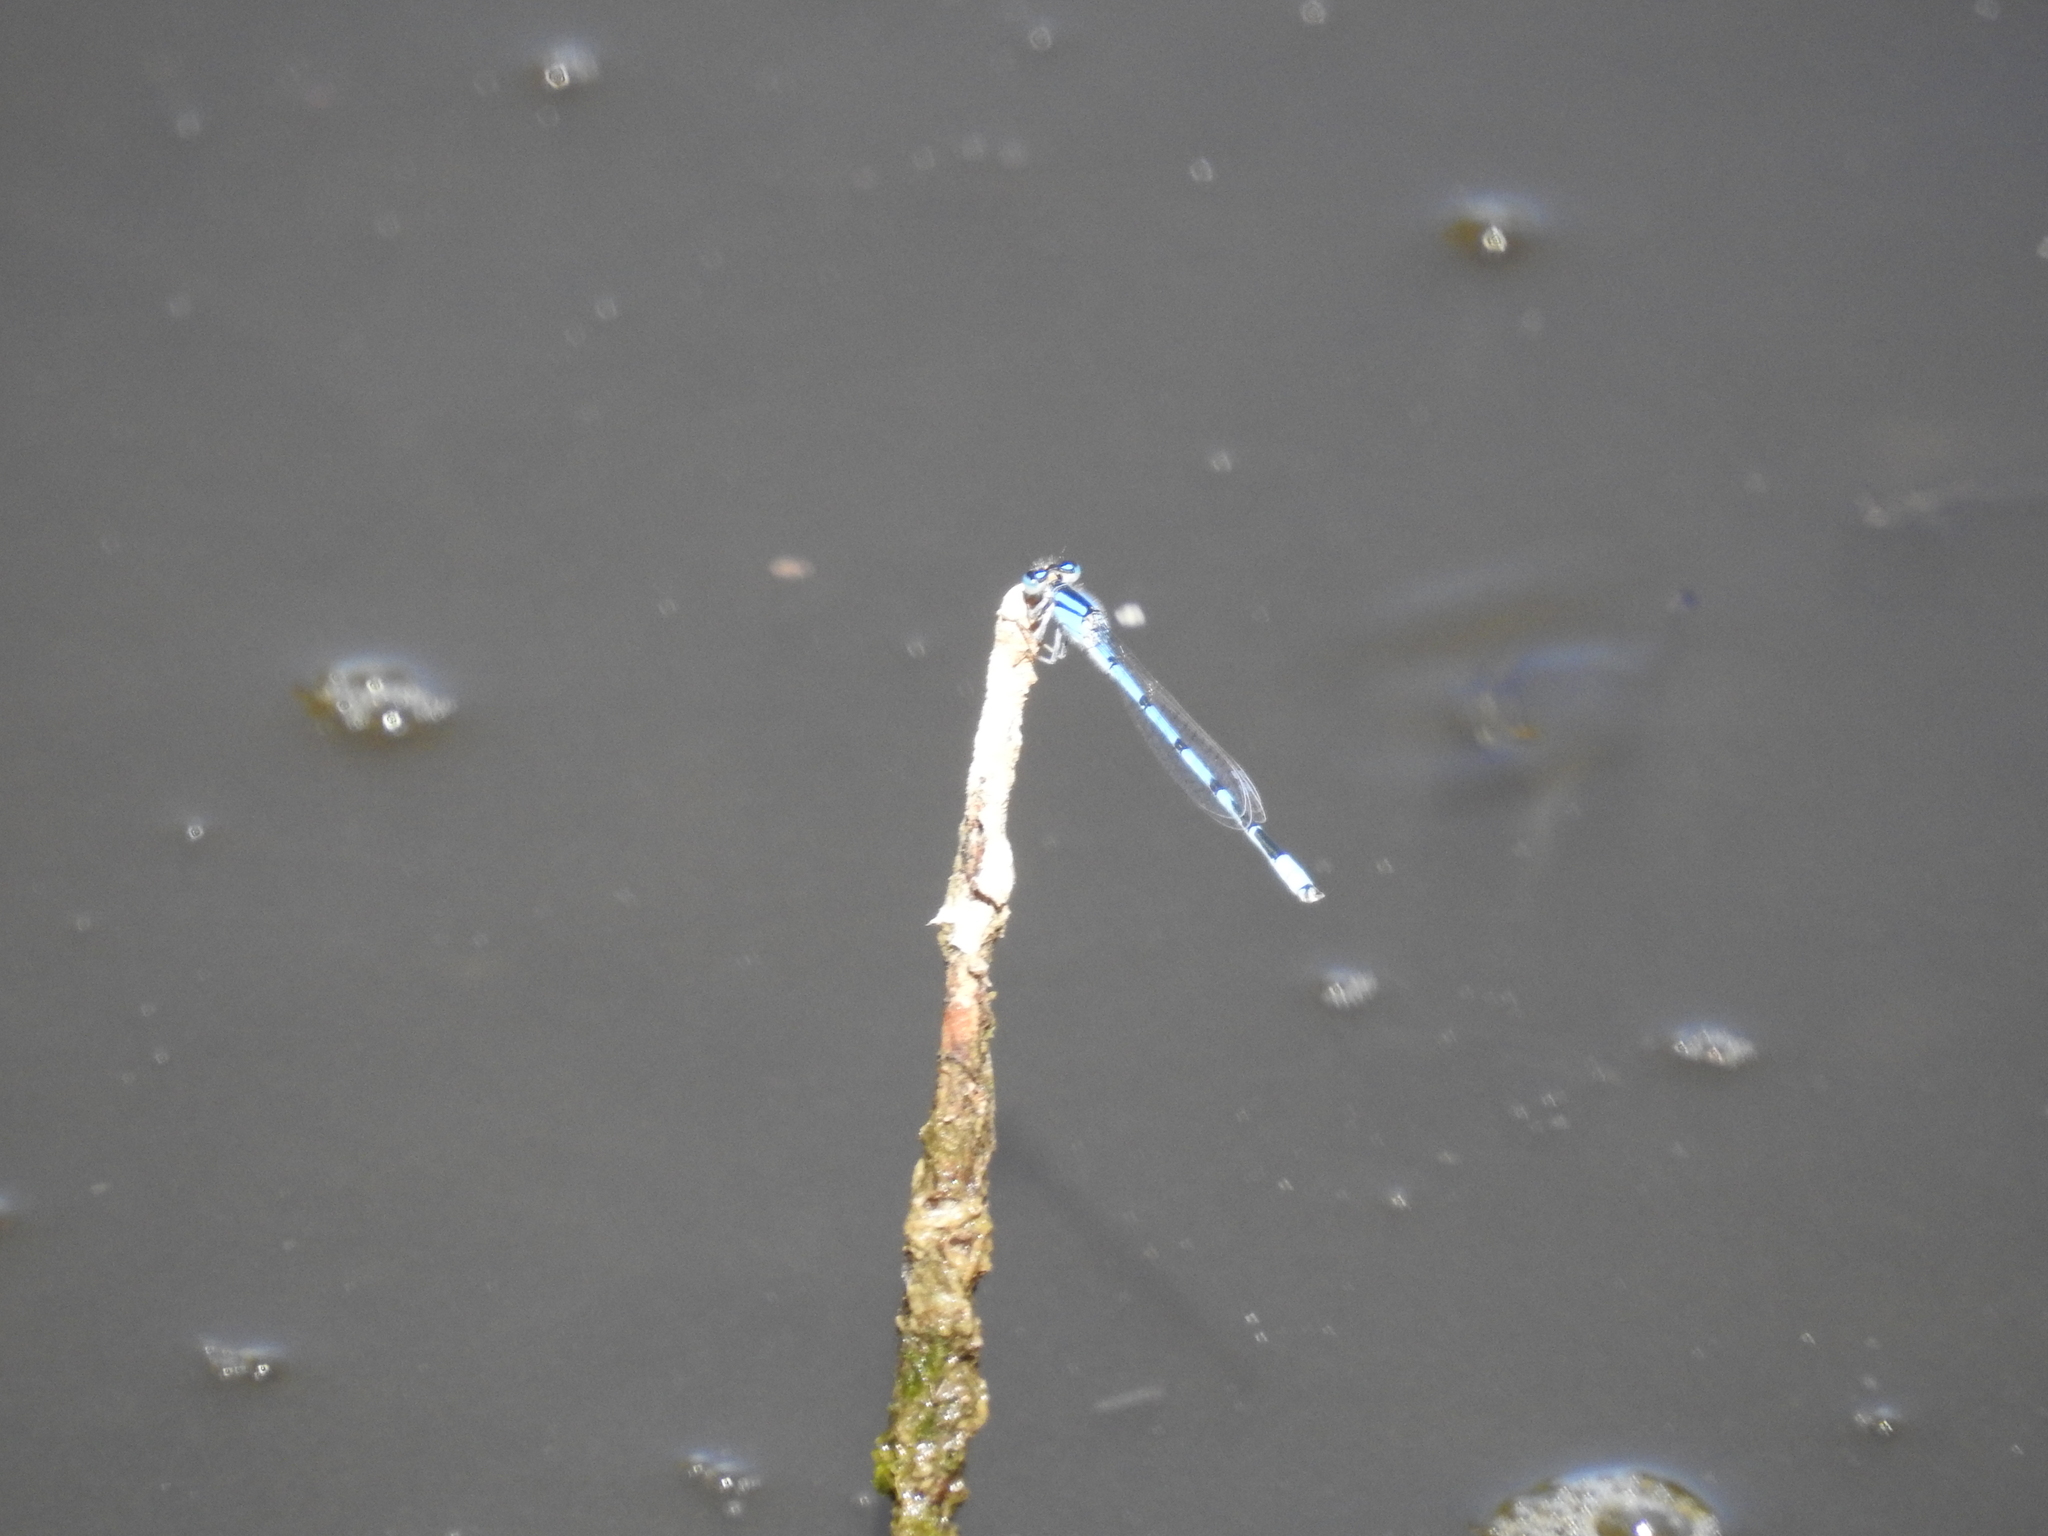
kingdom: Animalia
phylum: Arthropoda
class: Insecta
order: Odonata
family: Coenagrionidae
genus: Enallagma
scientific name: Enallagma civile
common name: Damselfly
